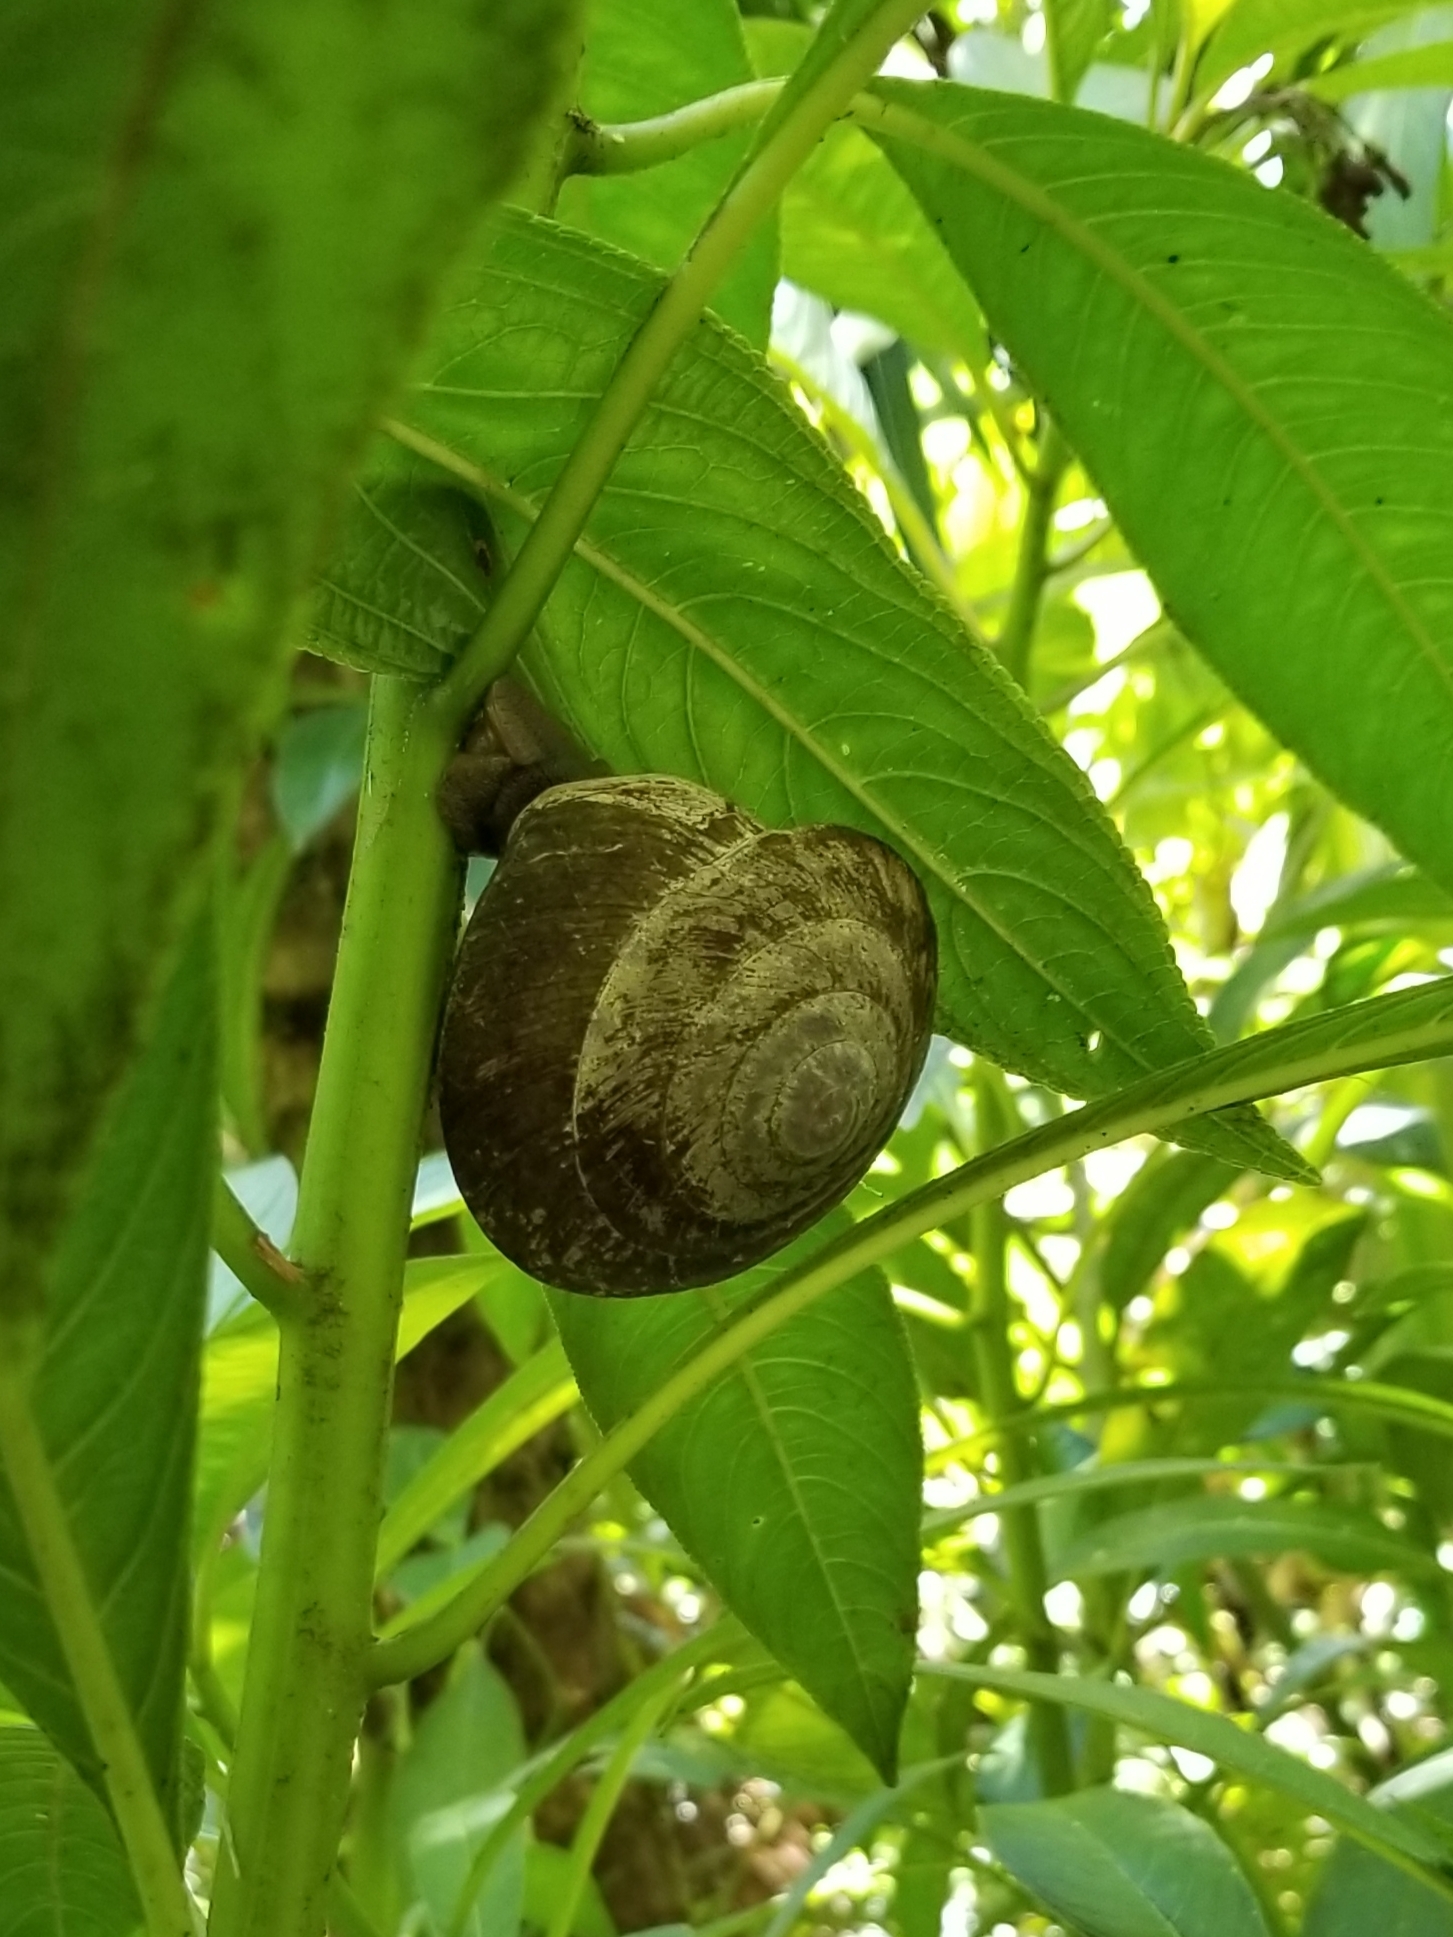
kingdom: Animalia
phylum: Mollusca
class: Gastropoda
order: Stylommatophora
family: Solaropsidae
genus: Caracolus
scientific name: Caracolus carocolla
